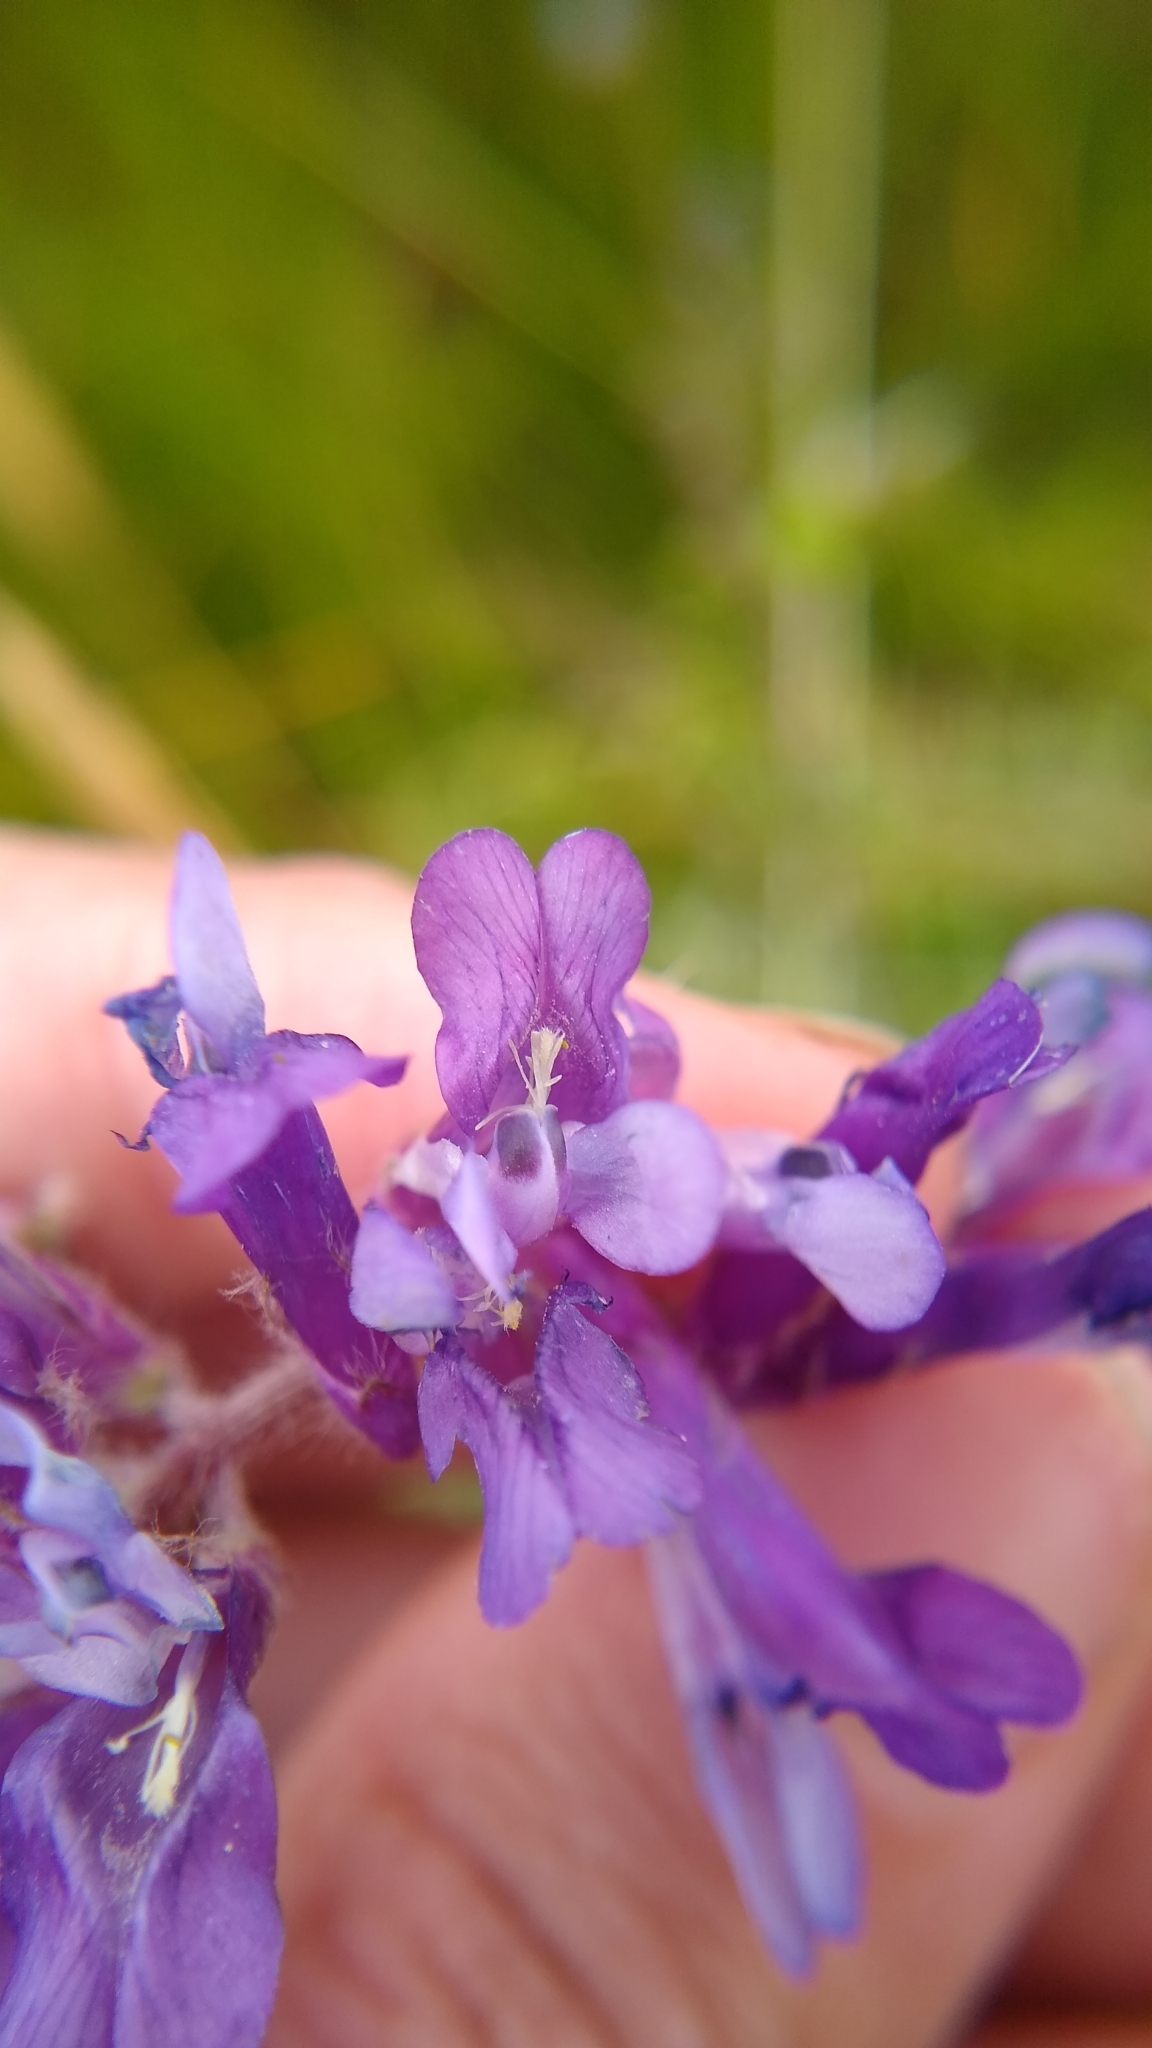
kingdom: Plantae
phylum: Tracheophyta
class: Magnoliopsida
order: Fabales
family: Fabaceae
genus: Vicia
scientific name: Vicia villosa
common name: Fodder vetch
